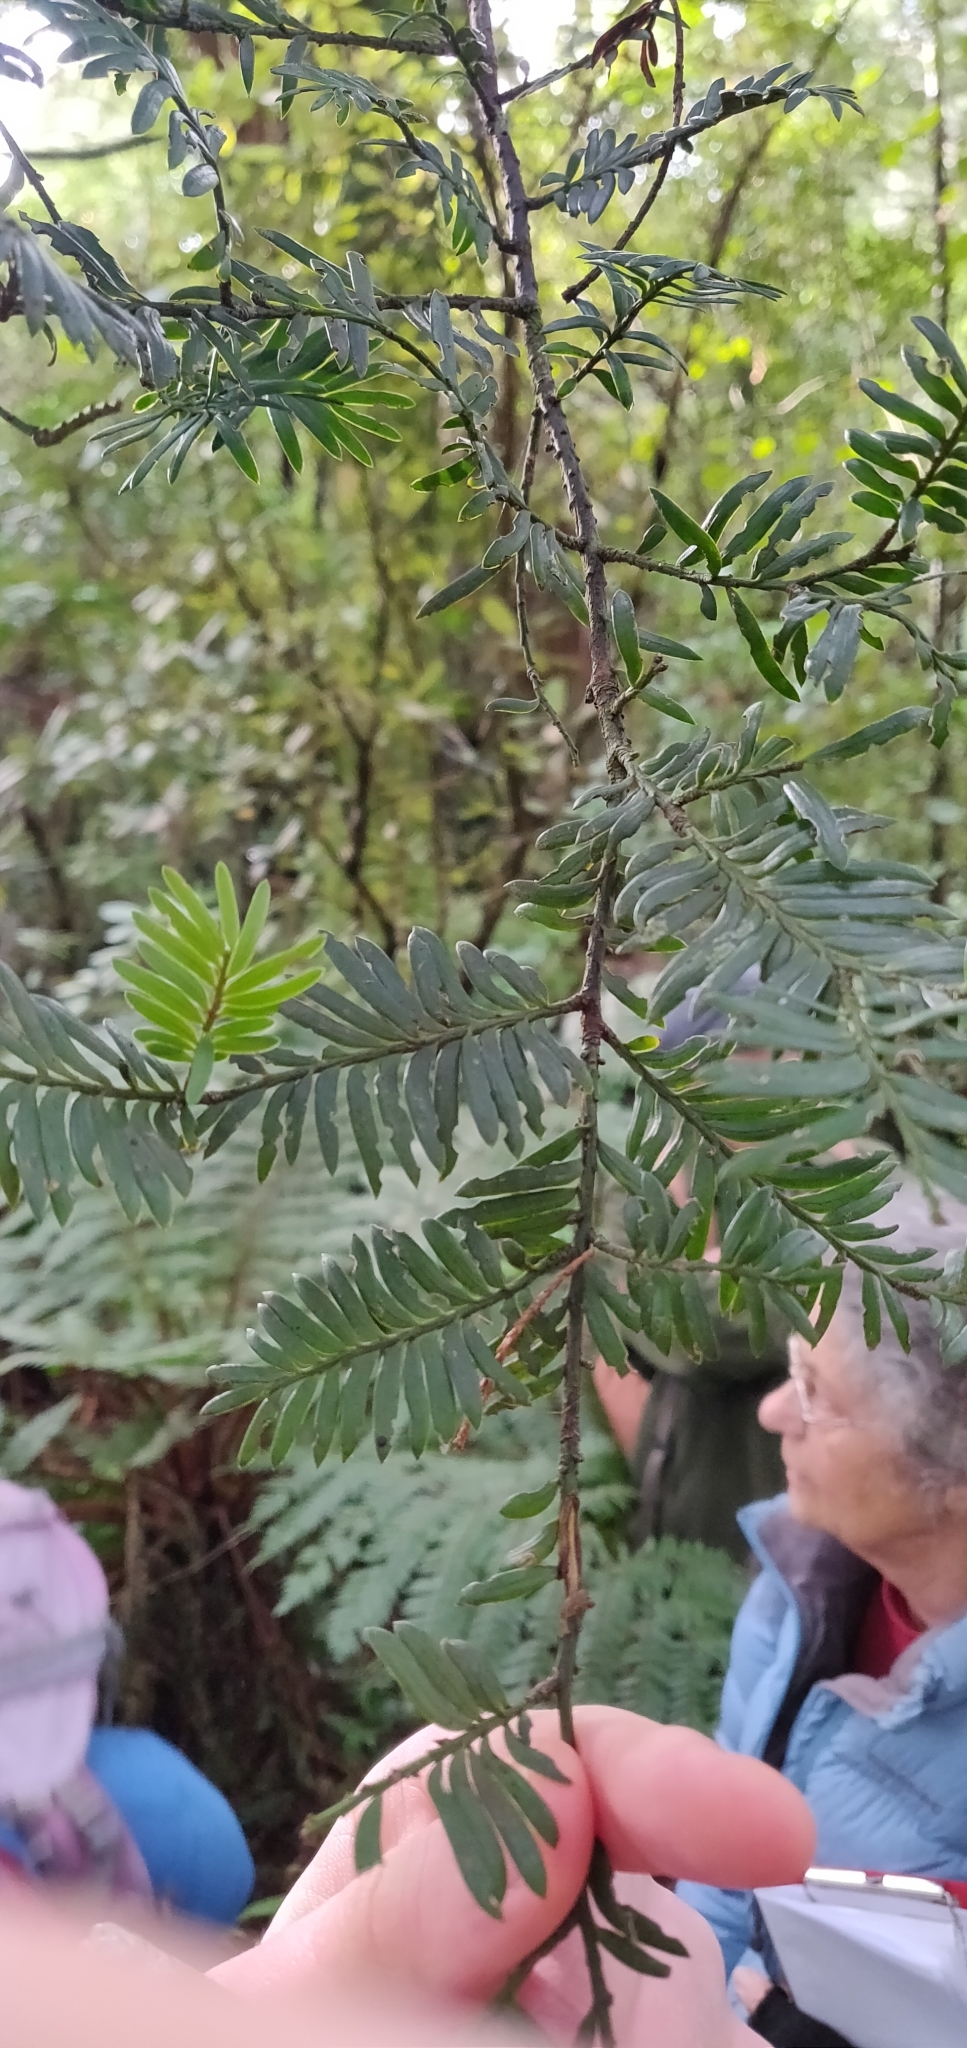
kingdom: Plantae
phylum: Tracheophyta
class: Pinopsida
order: Pinales
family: Podocarpaceae
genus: Prumnopitys
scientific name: Prumnopitys ferruginea
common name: Brown pine
